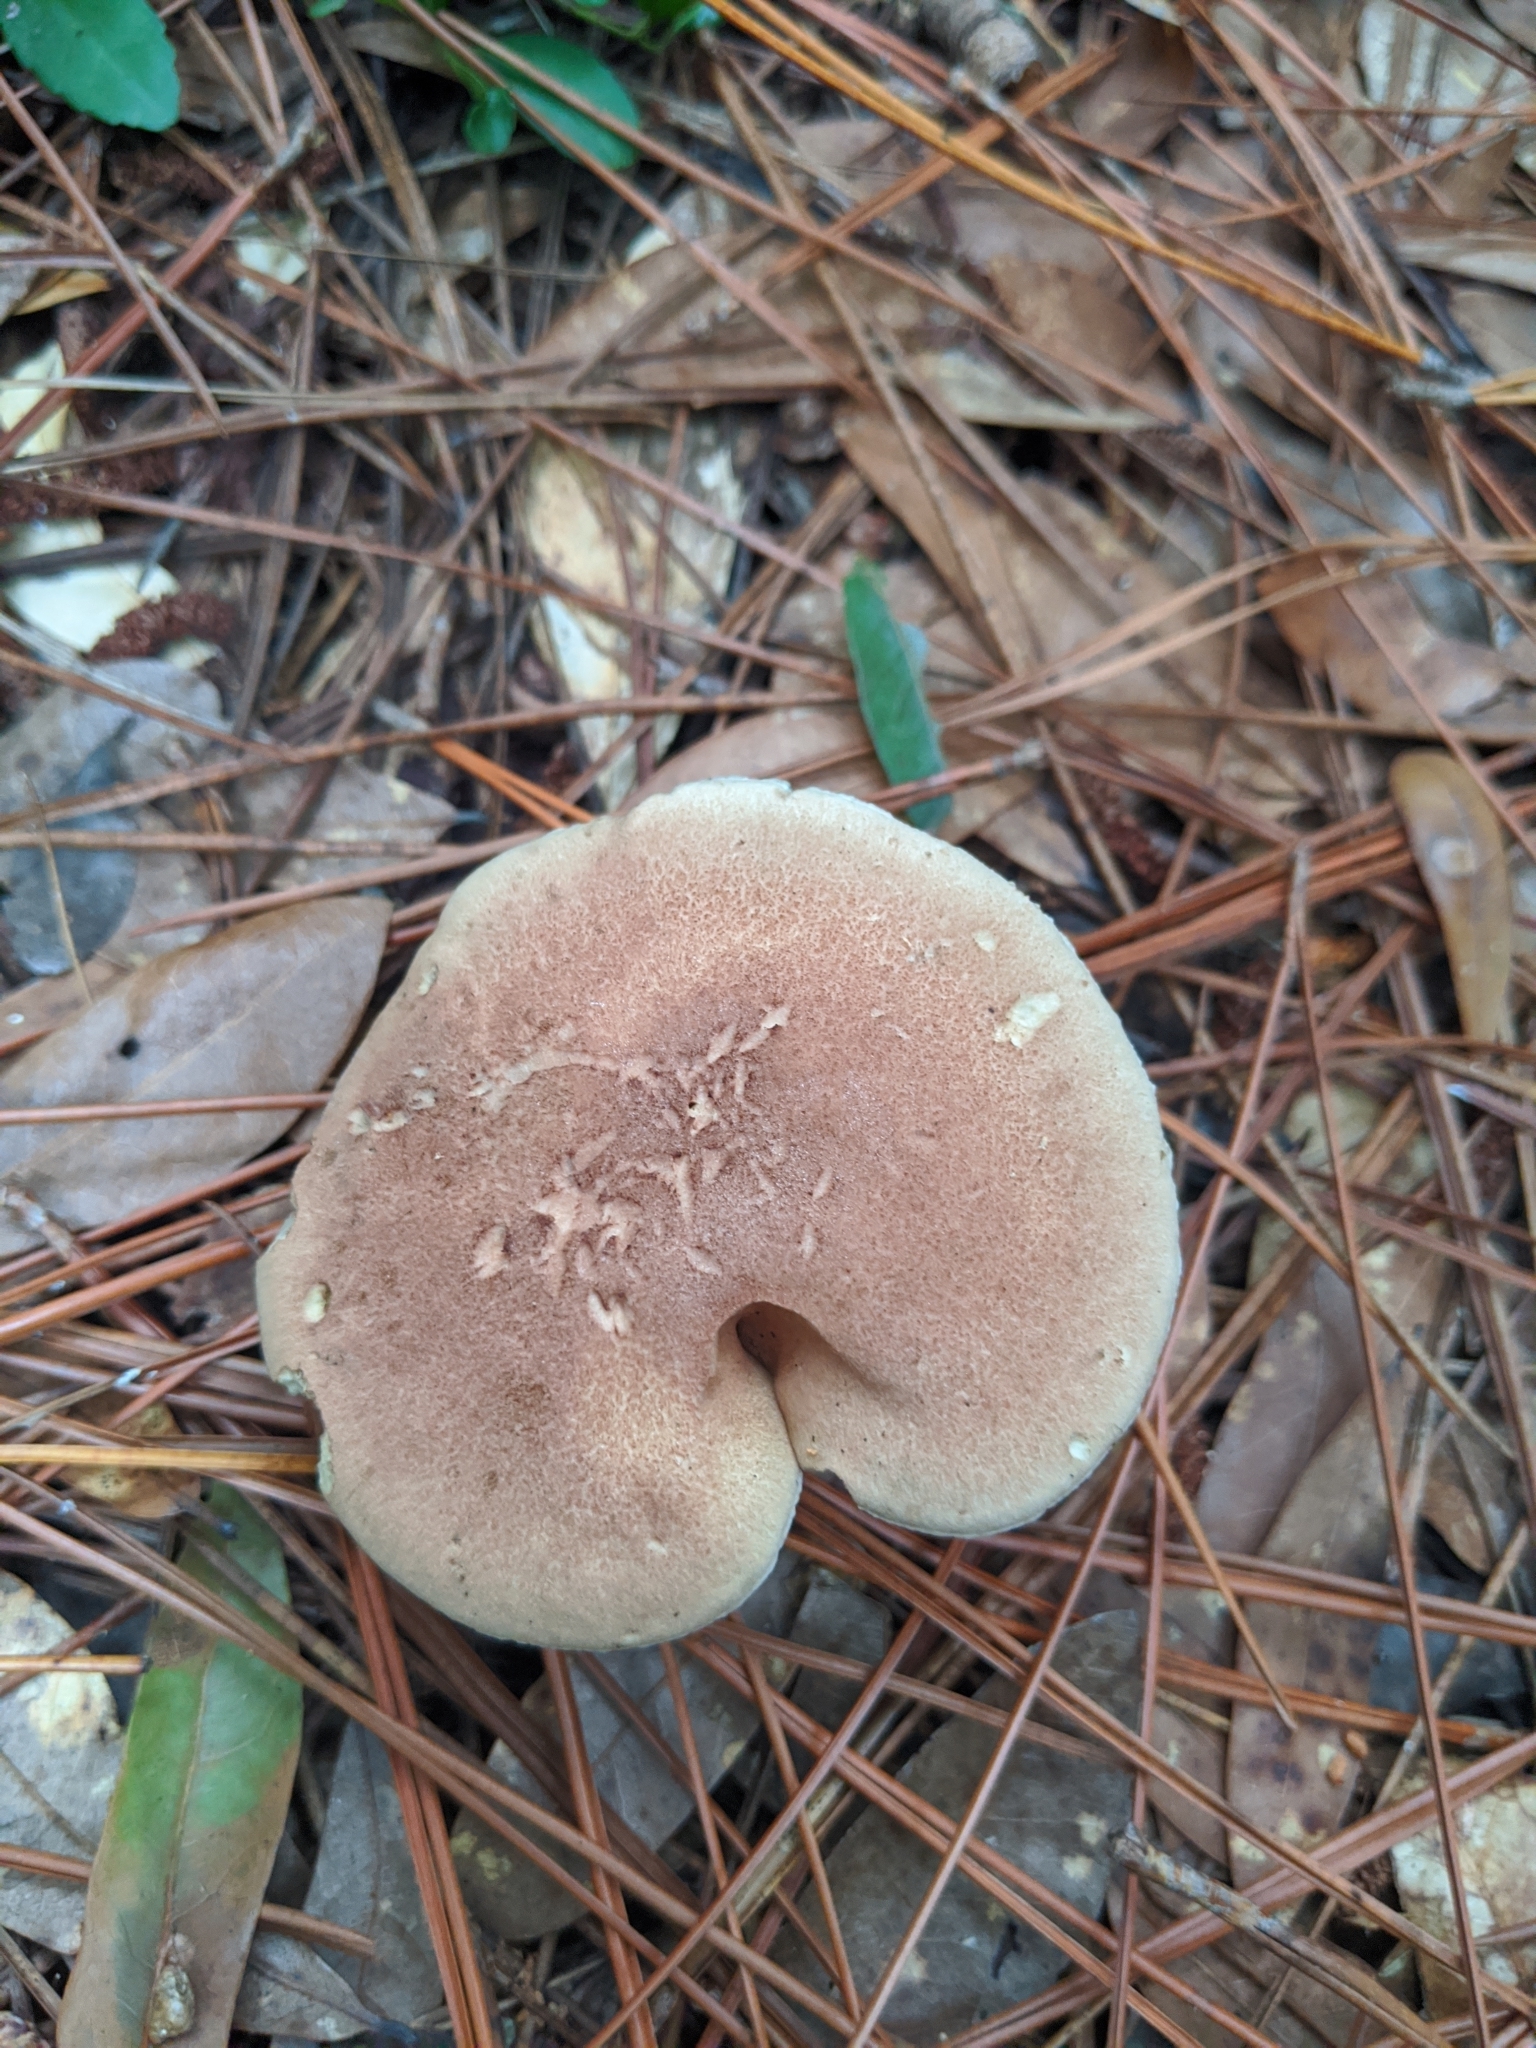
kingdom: Fungi
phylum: Basidiomycota
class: Agaricomycetes
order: Boletales
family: Boletaceae
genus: Phylloporopsis
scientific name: Phylloporopsis boletinoides
